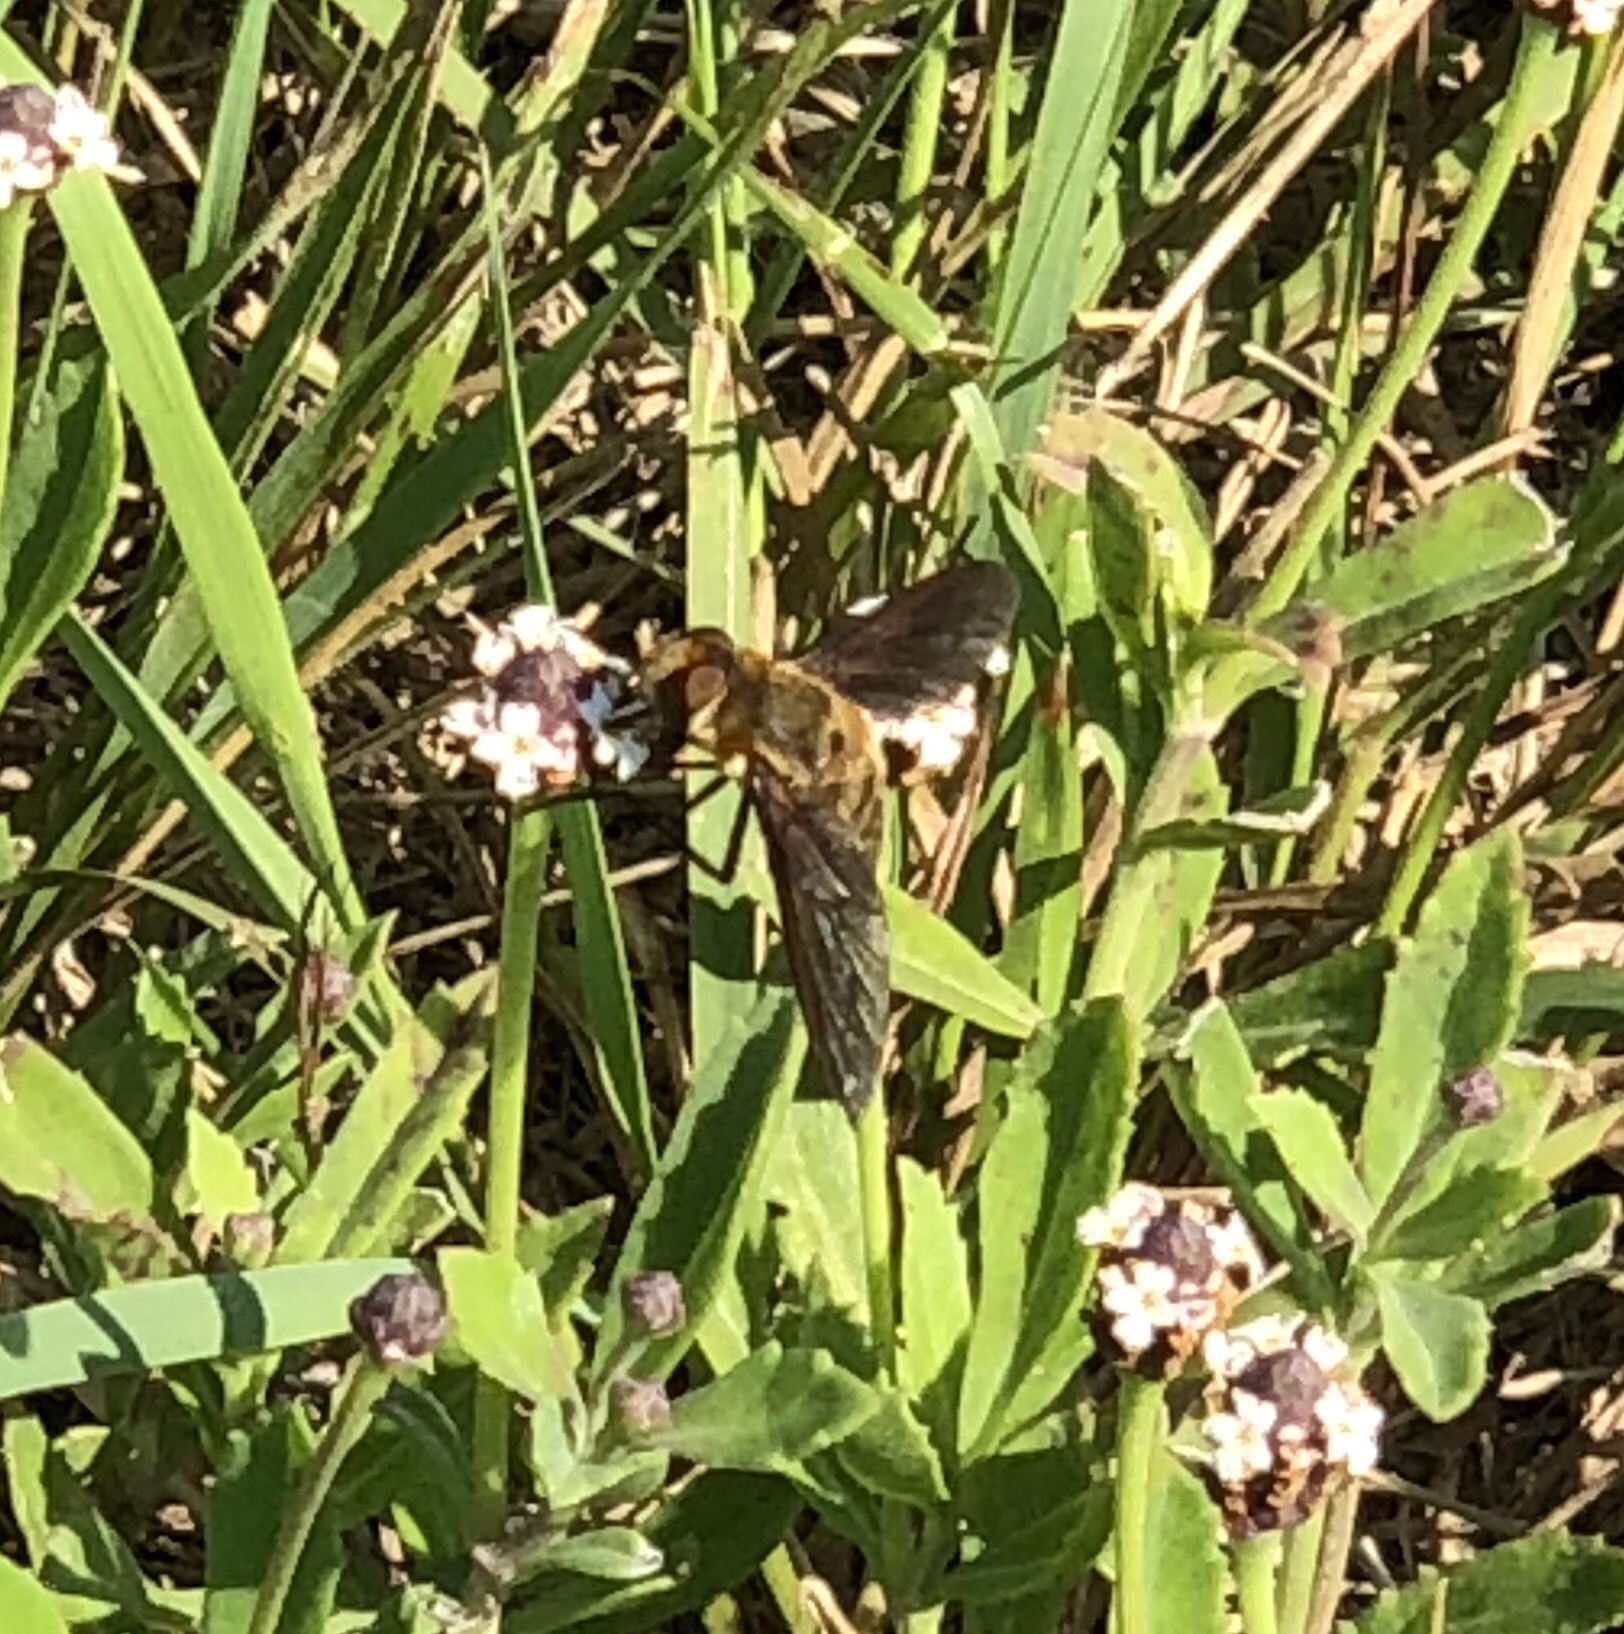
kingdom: Animalia
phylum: Arthropoda
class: Insecta
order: Diptera
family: Bombyliidae
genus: Poecilanthrax
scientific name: Poecilanthrax lucifer
